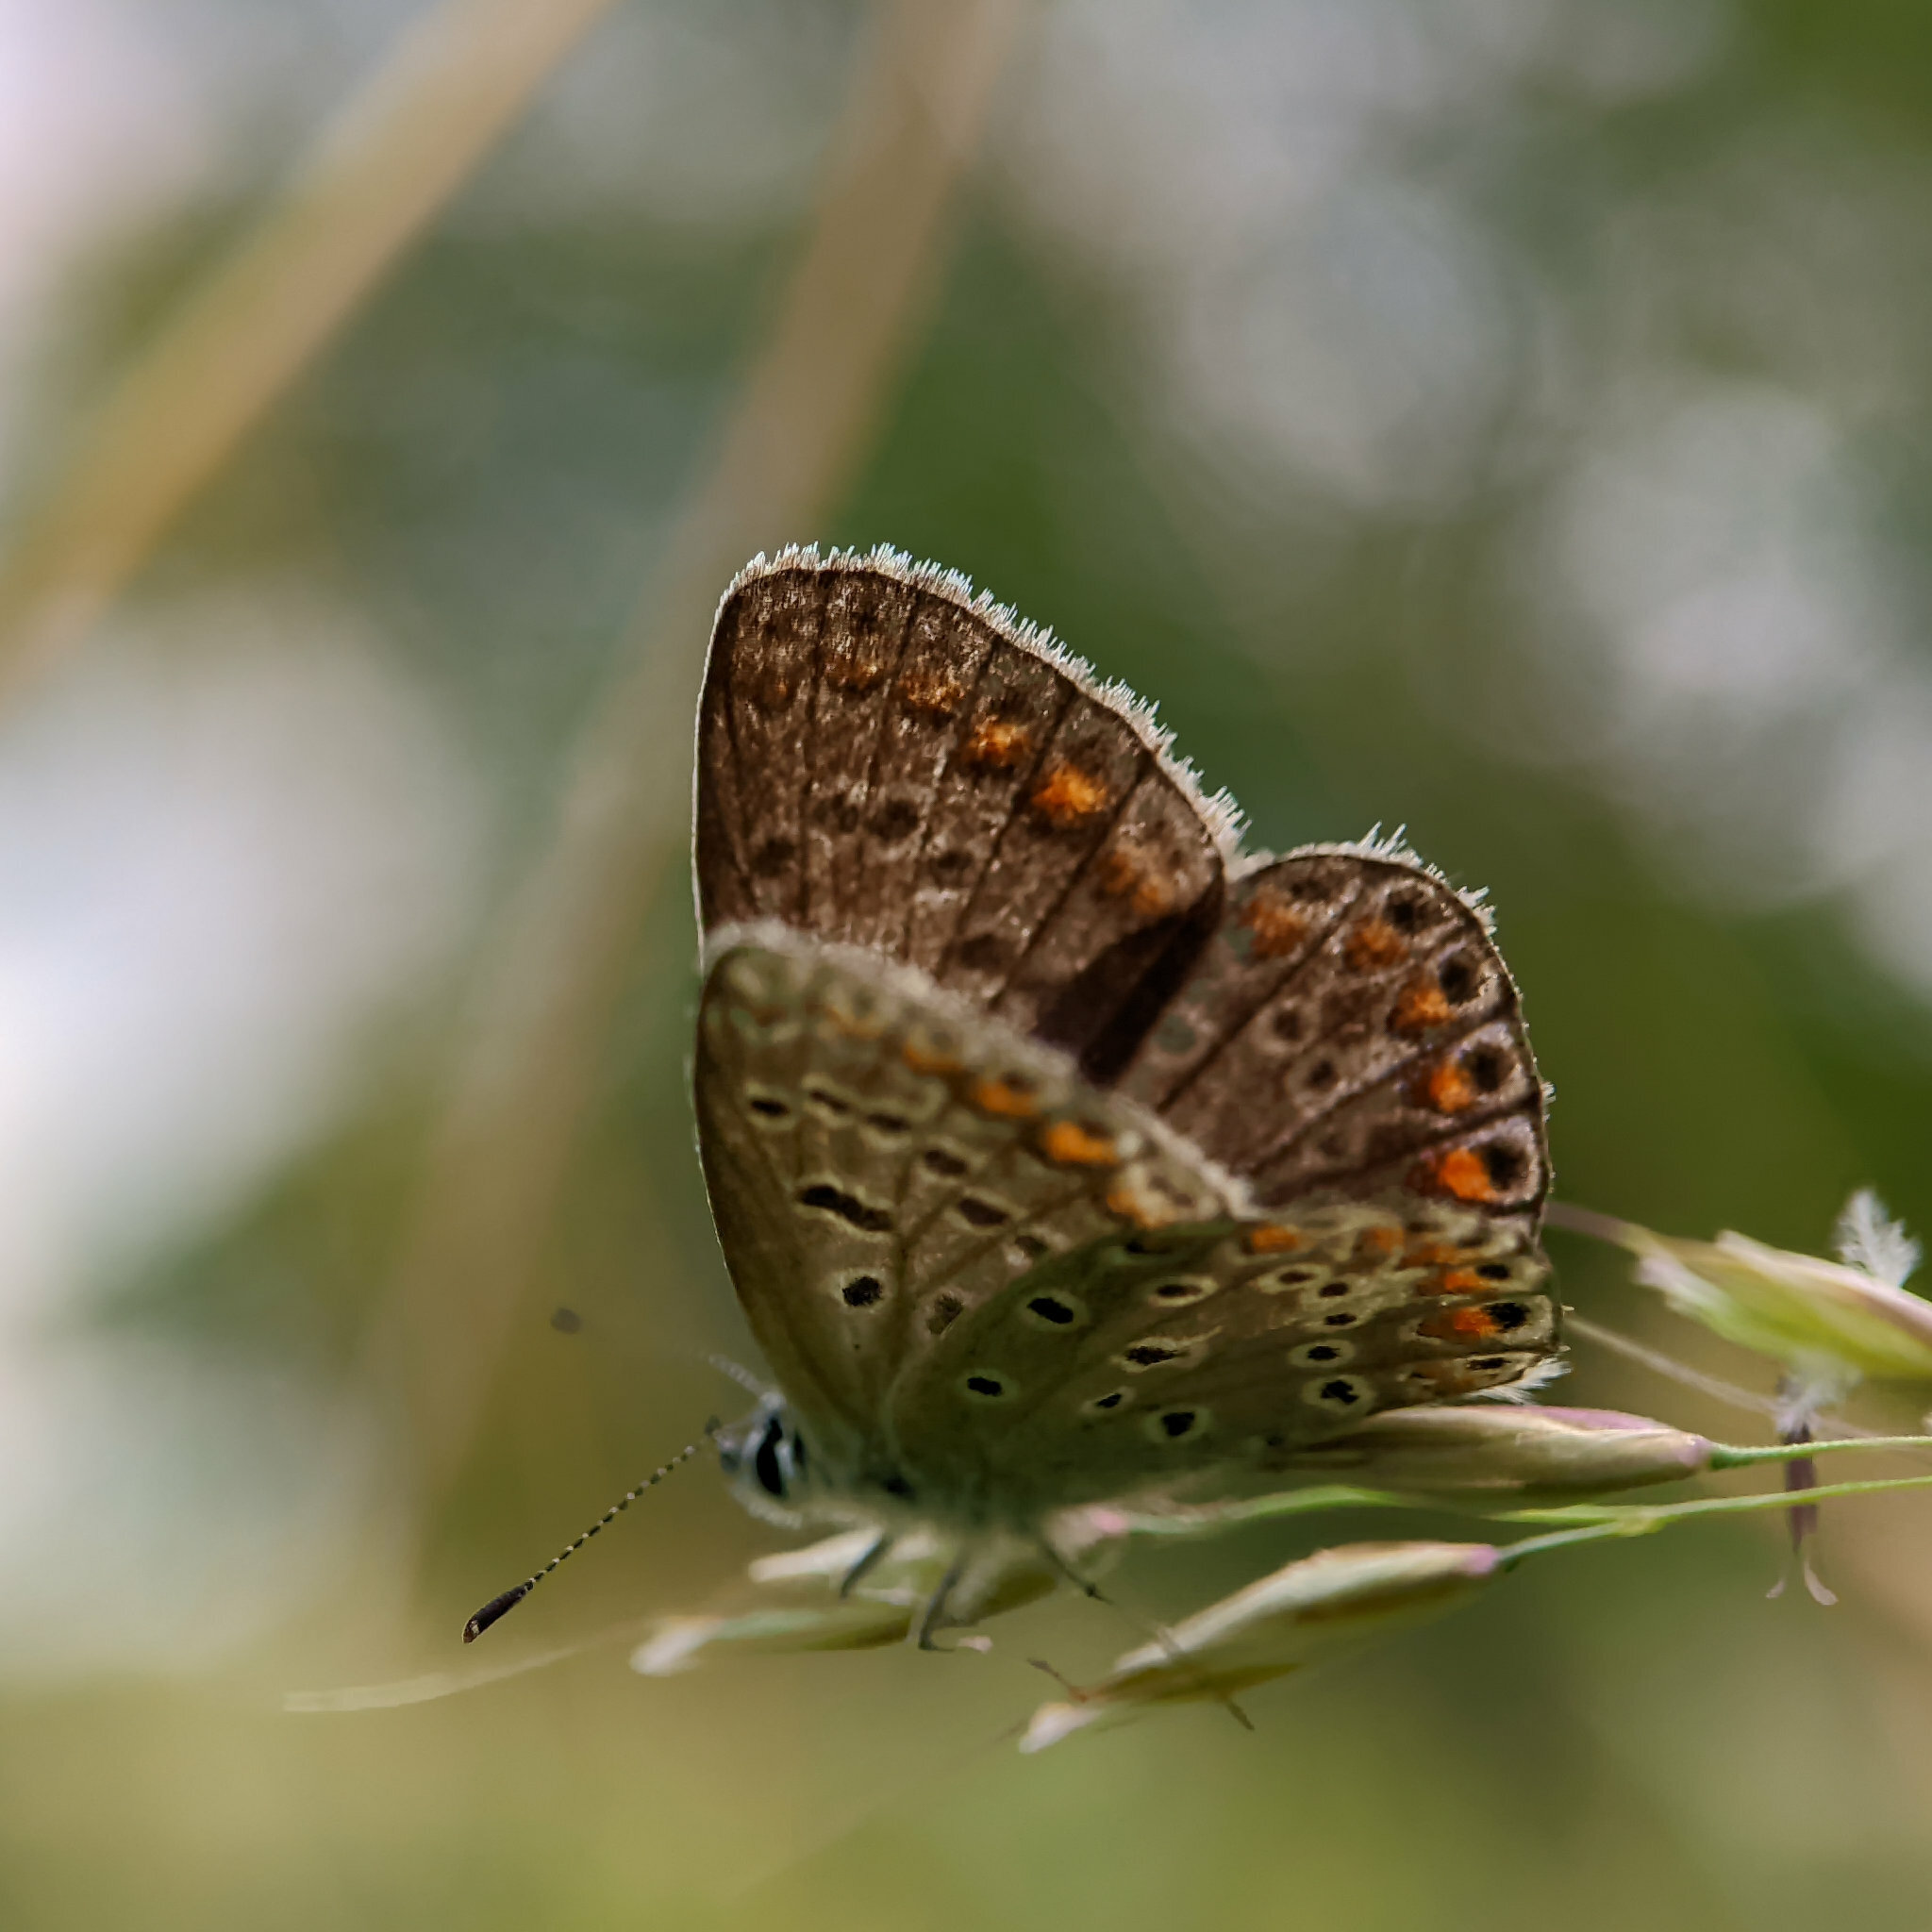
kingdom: Animalia
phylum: Arthropoda
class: Insecta
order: Lepidoptera
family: Lycaenidae
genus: Polyommatus
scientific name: Polyommatus icarus
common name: Common blue
